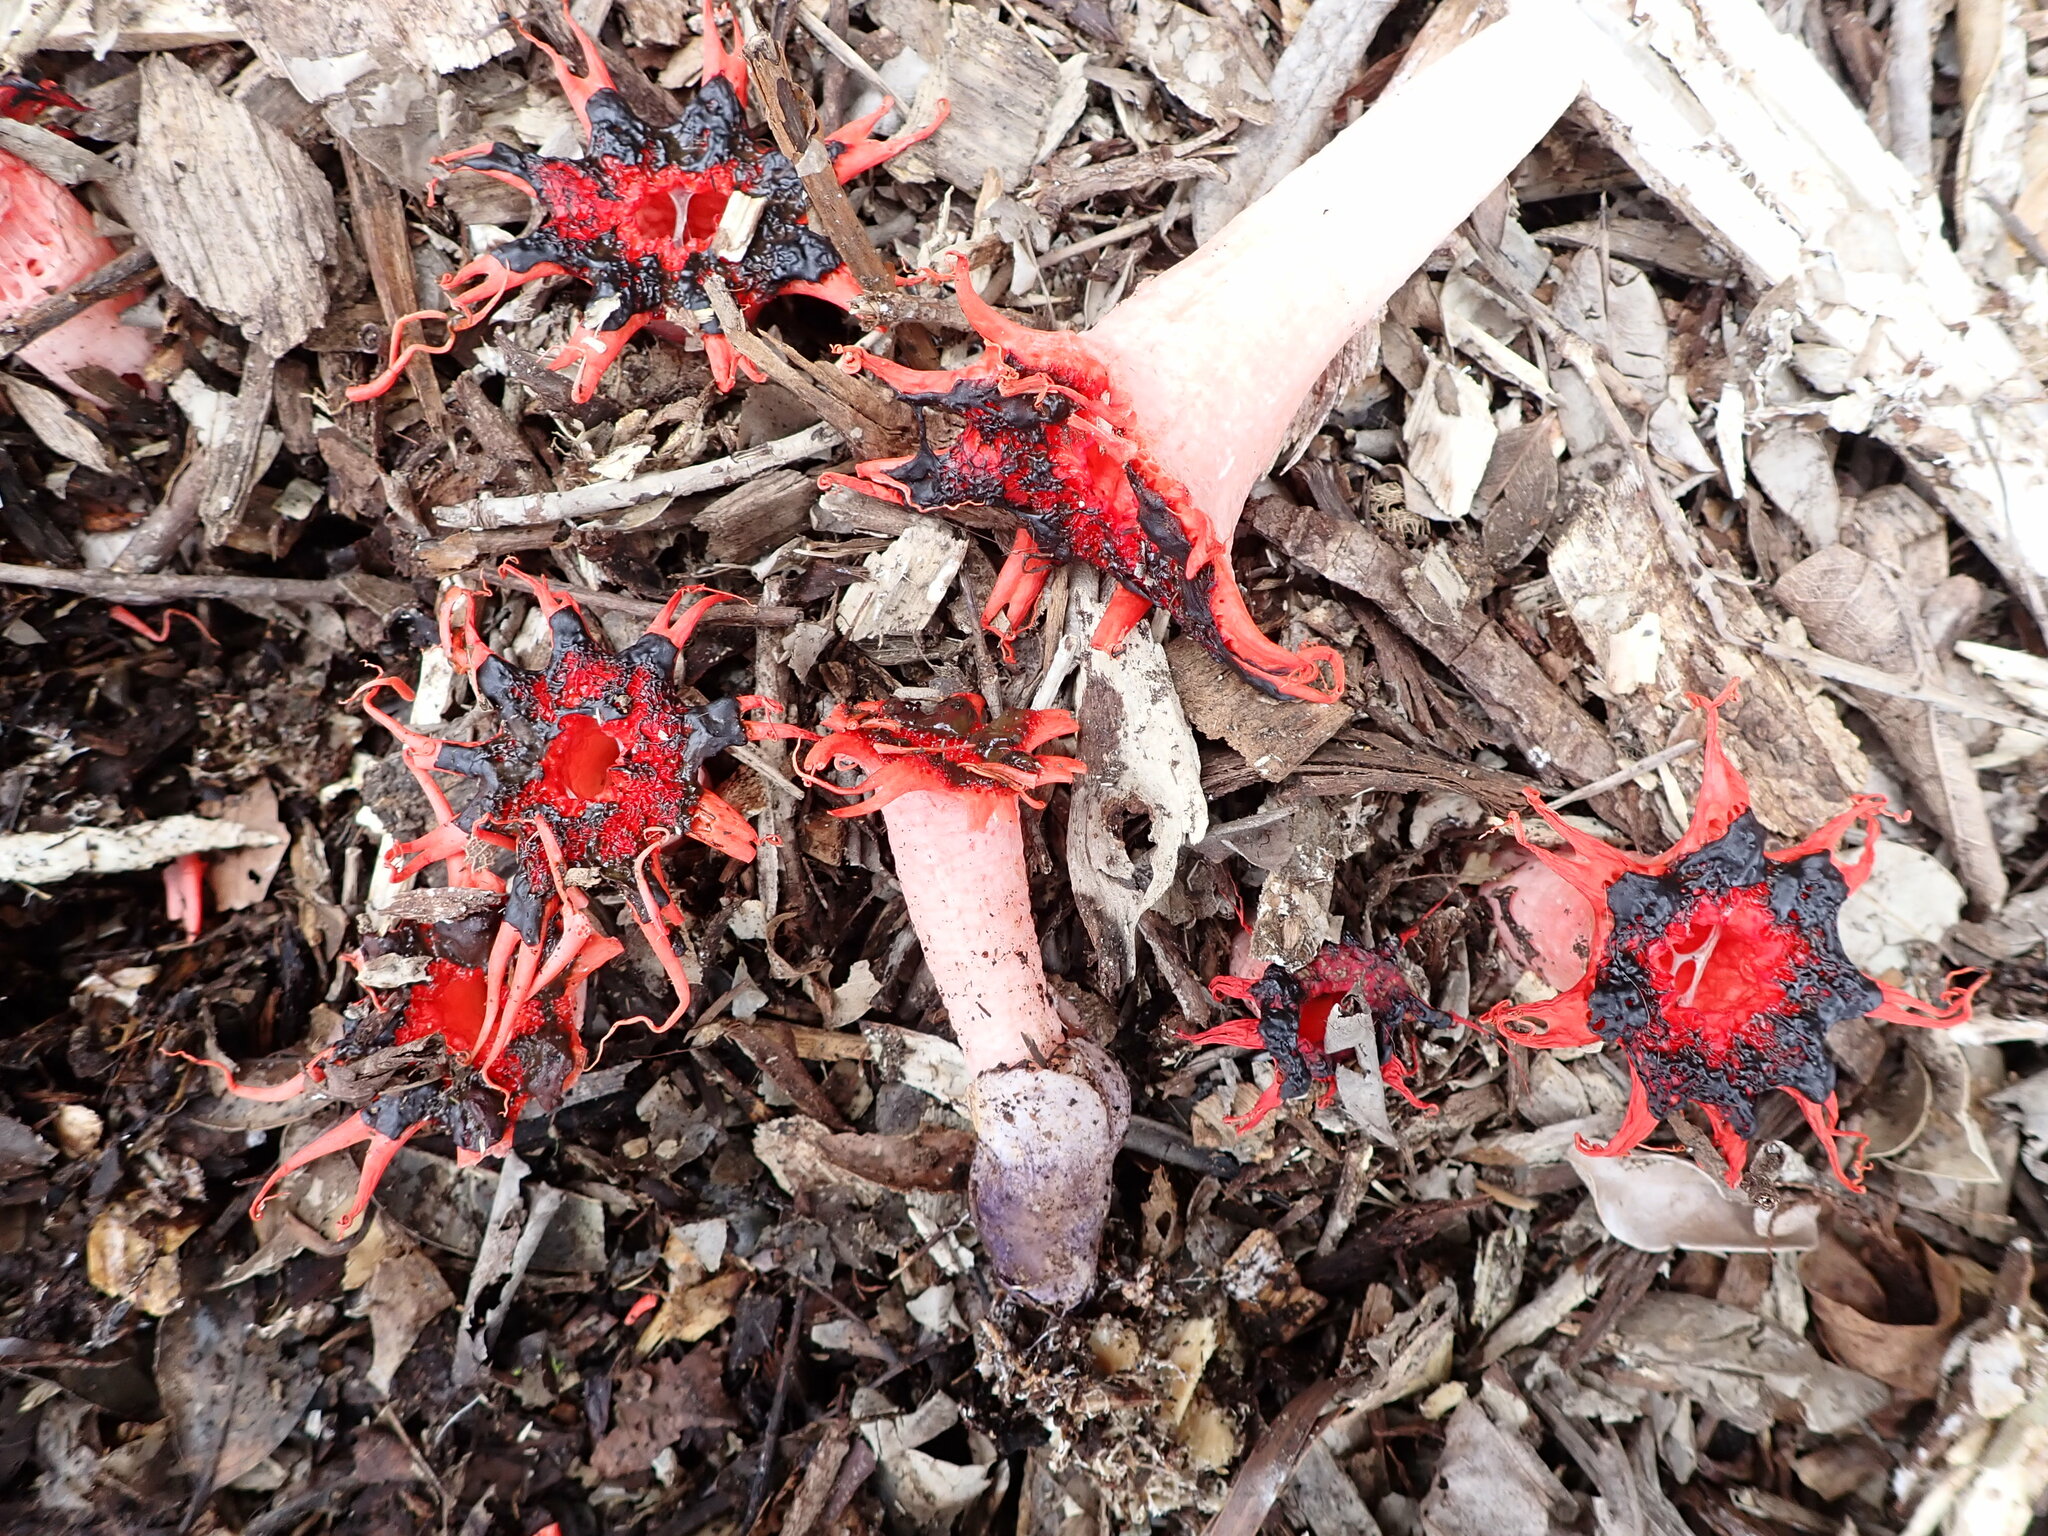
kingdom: Fungi
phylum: Basidiomycota
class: Agaricomycetes
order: Phallales
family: Phallaceae
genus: Aseroe
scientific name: Aseroe rubra
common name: Starfish fungus
